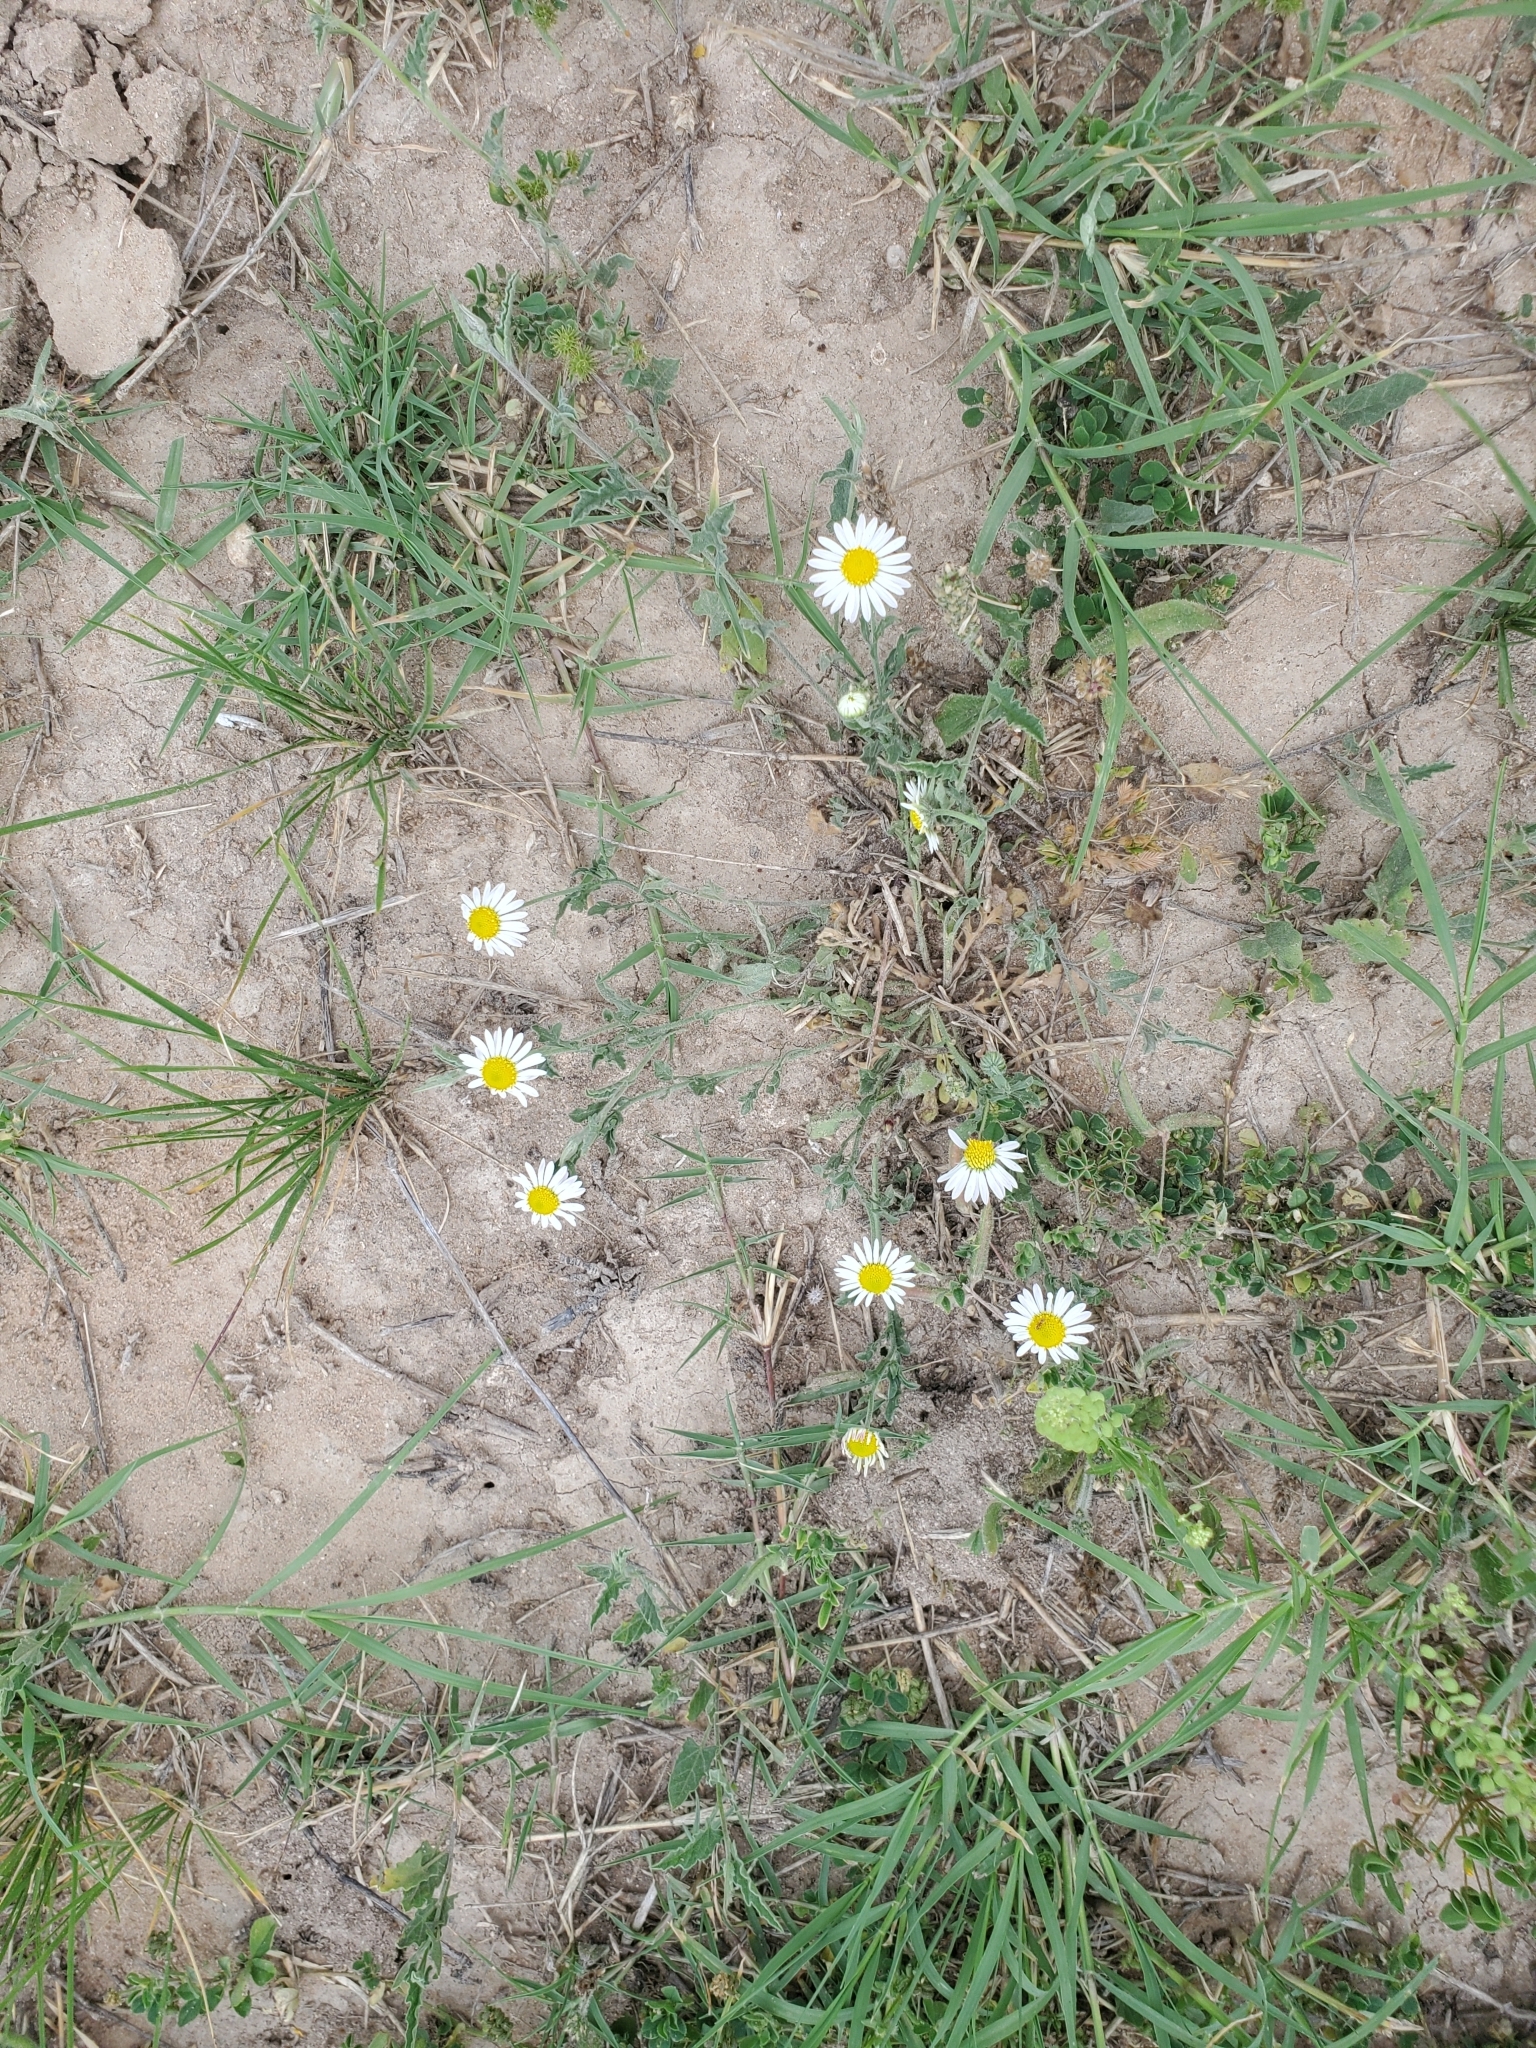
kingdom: Plantae
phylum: Tracheophyta
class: Magnoliopsida
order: Asterales
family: Asteraceae
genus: Aphanostephus
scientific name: Aphanostephus ramosissimus
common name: Plains lazy daisy
